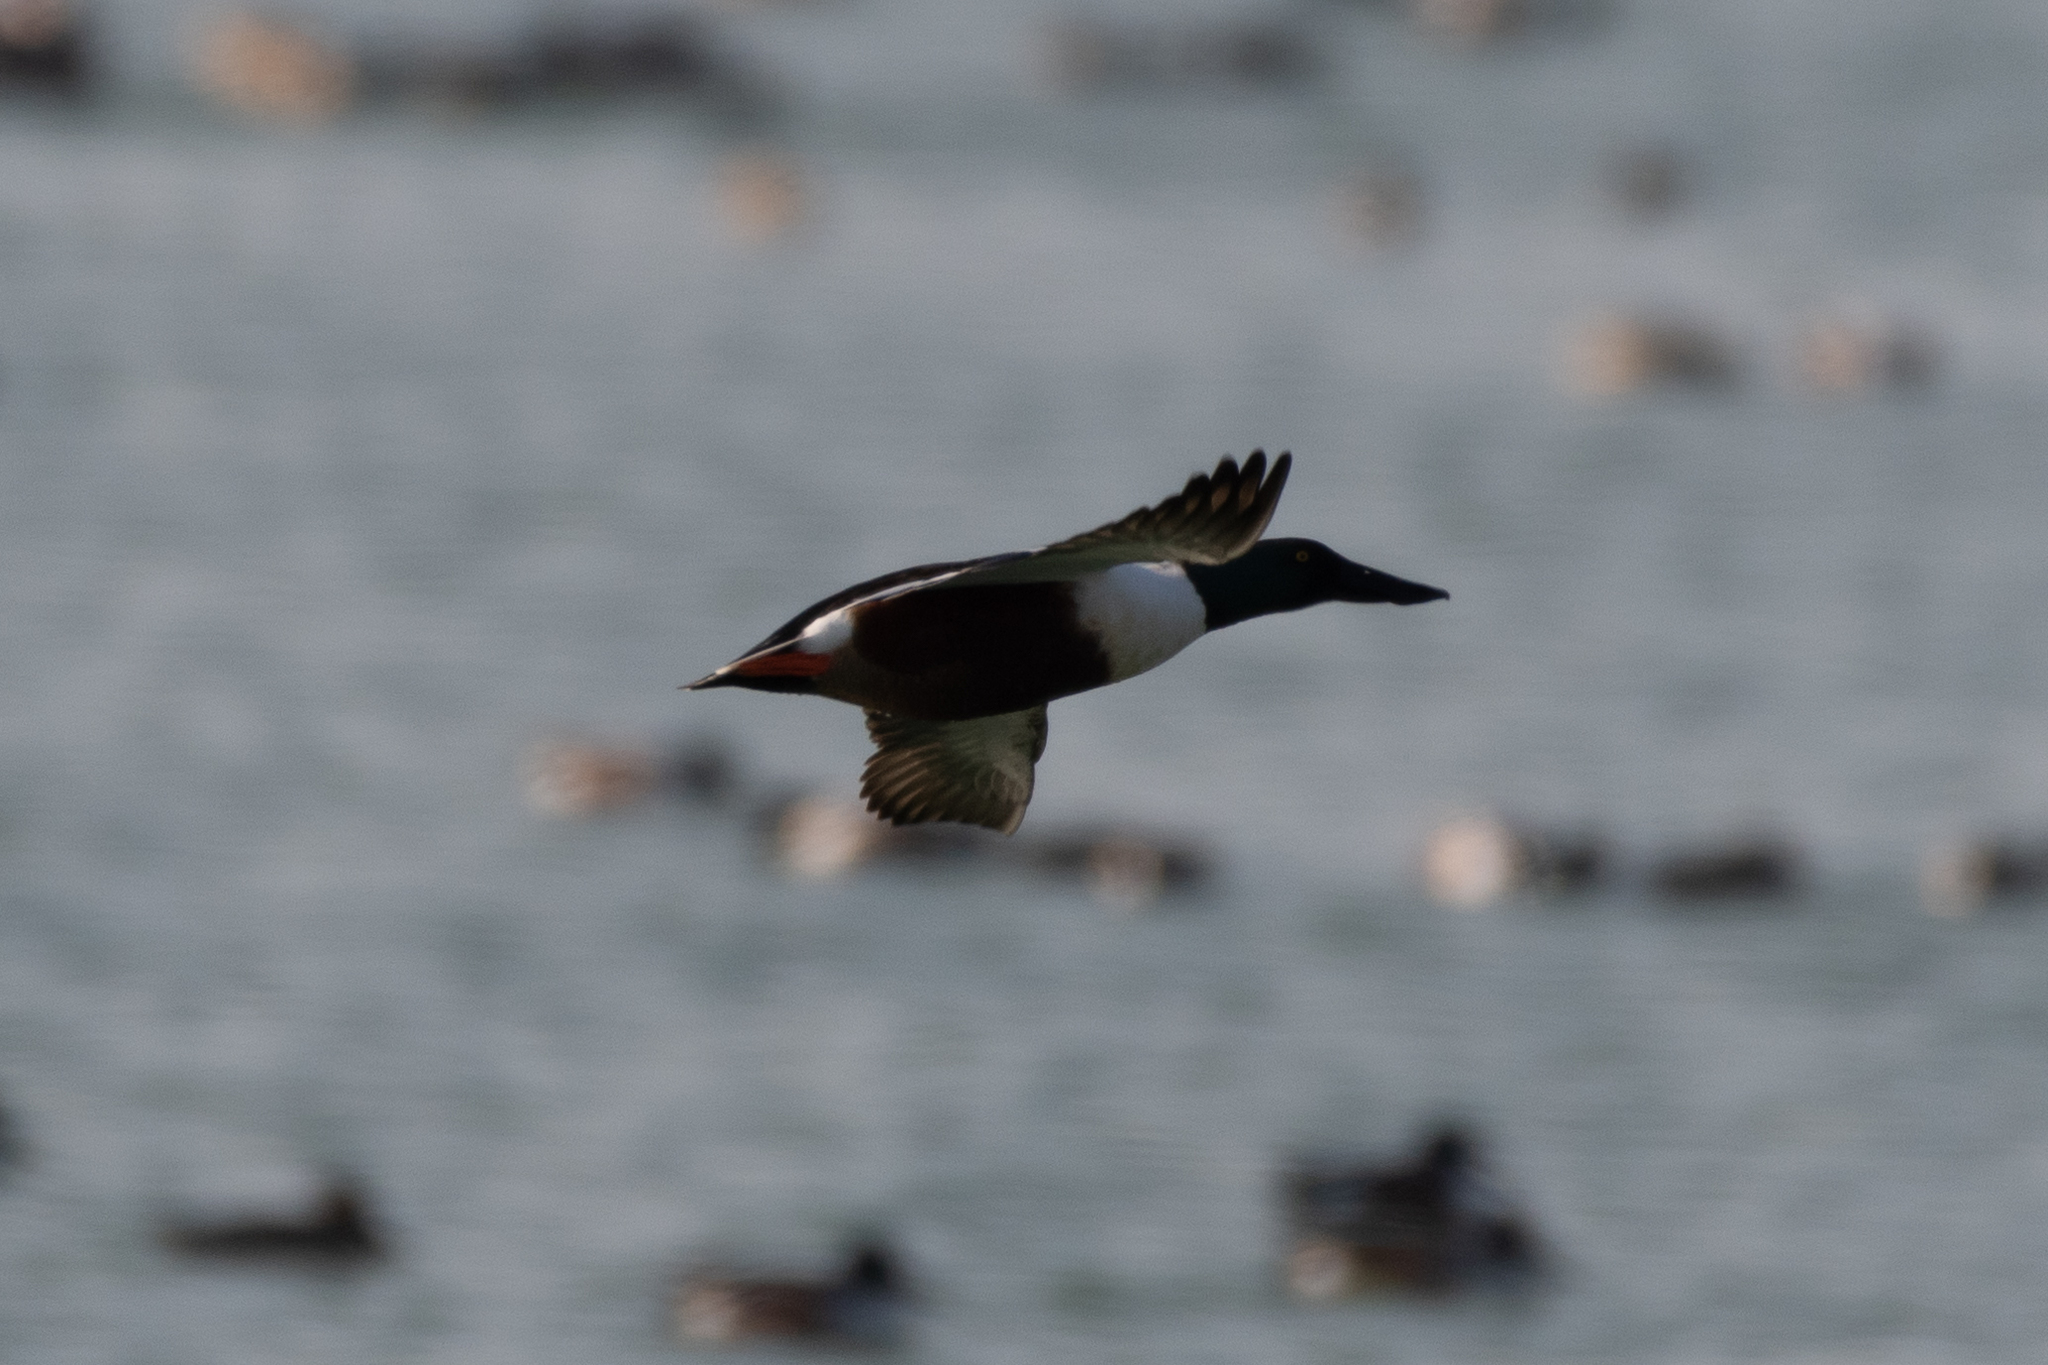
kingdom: Animalia
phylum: Chordata
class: Aves
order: Anseriformes
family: Anatidae
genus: Spatula
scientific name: Spatula clypeata
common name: Northern shoveler
